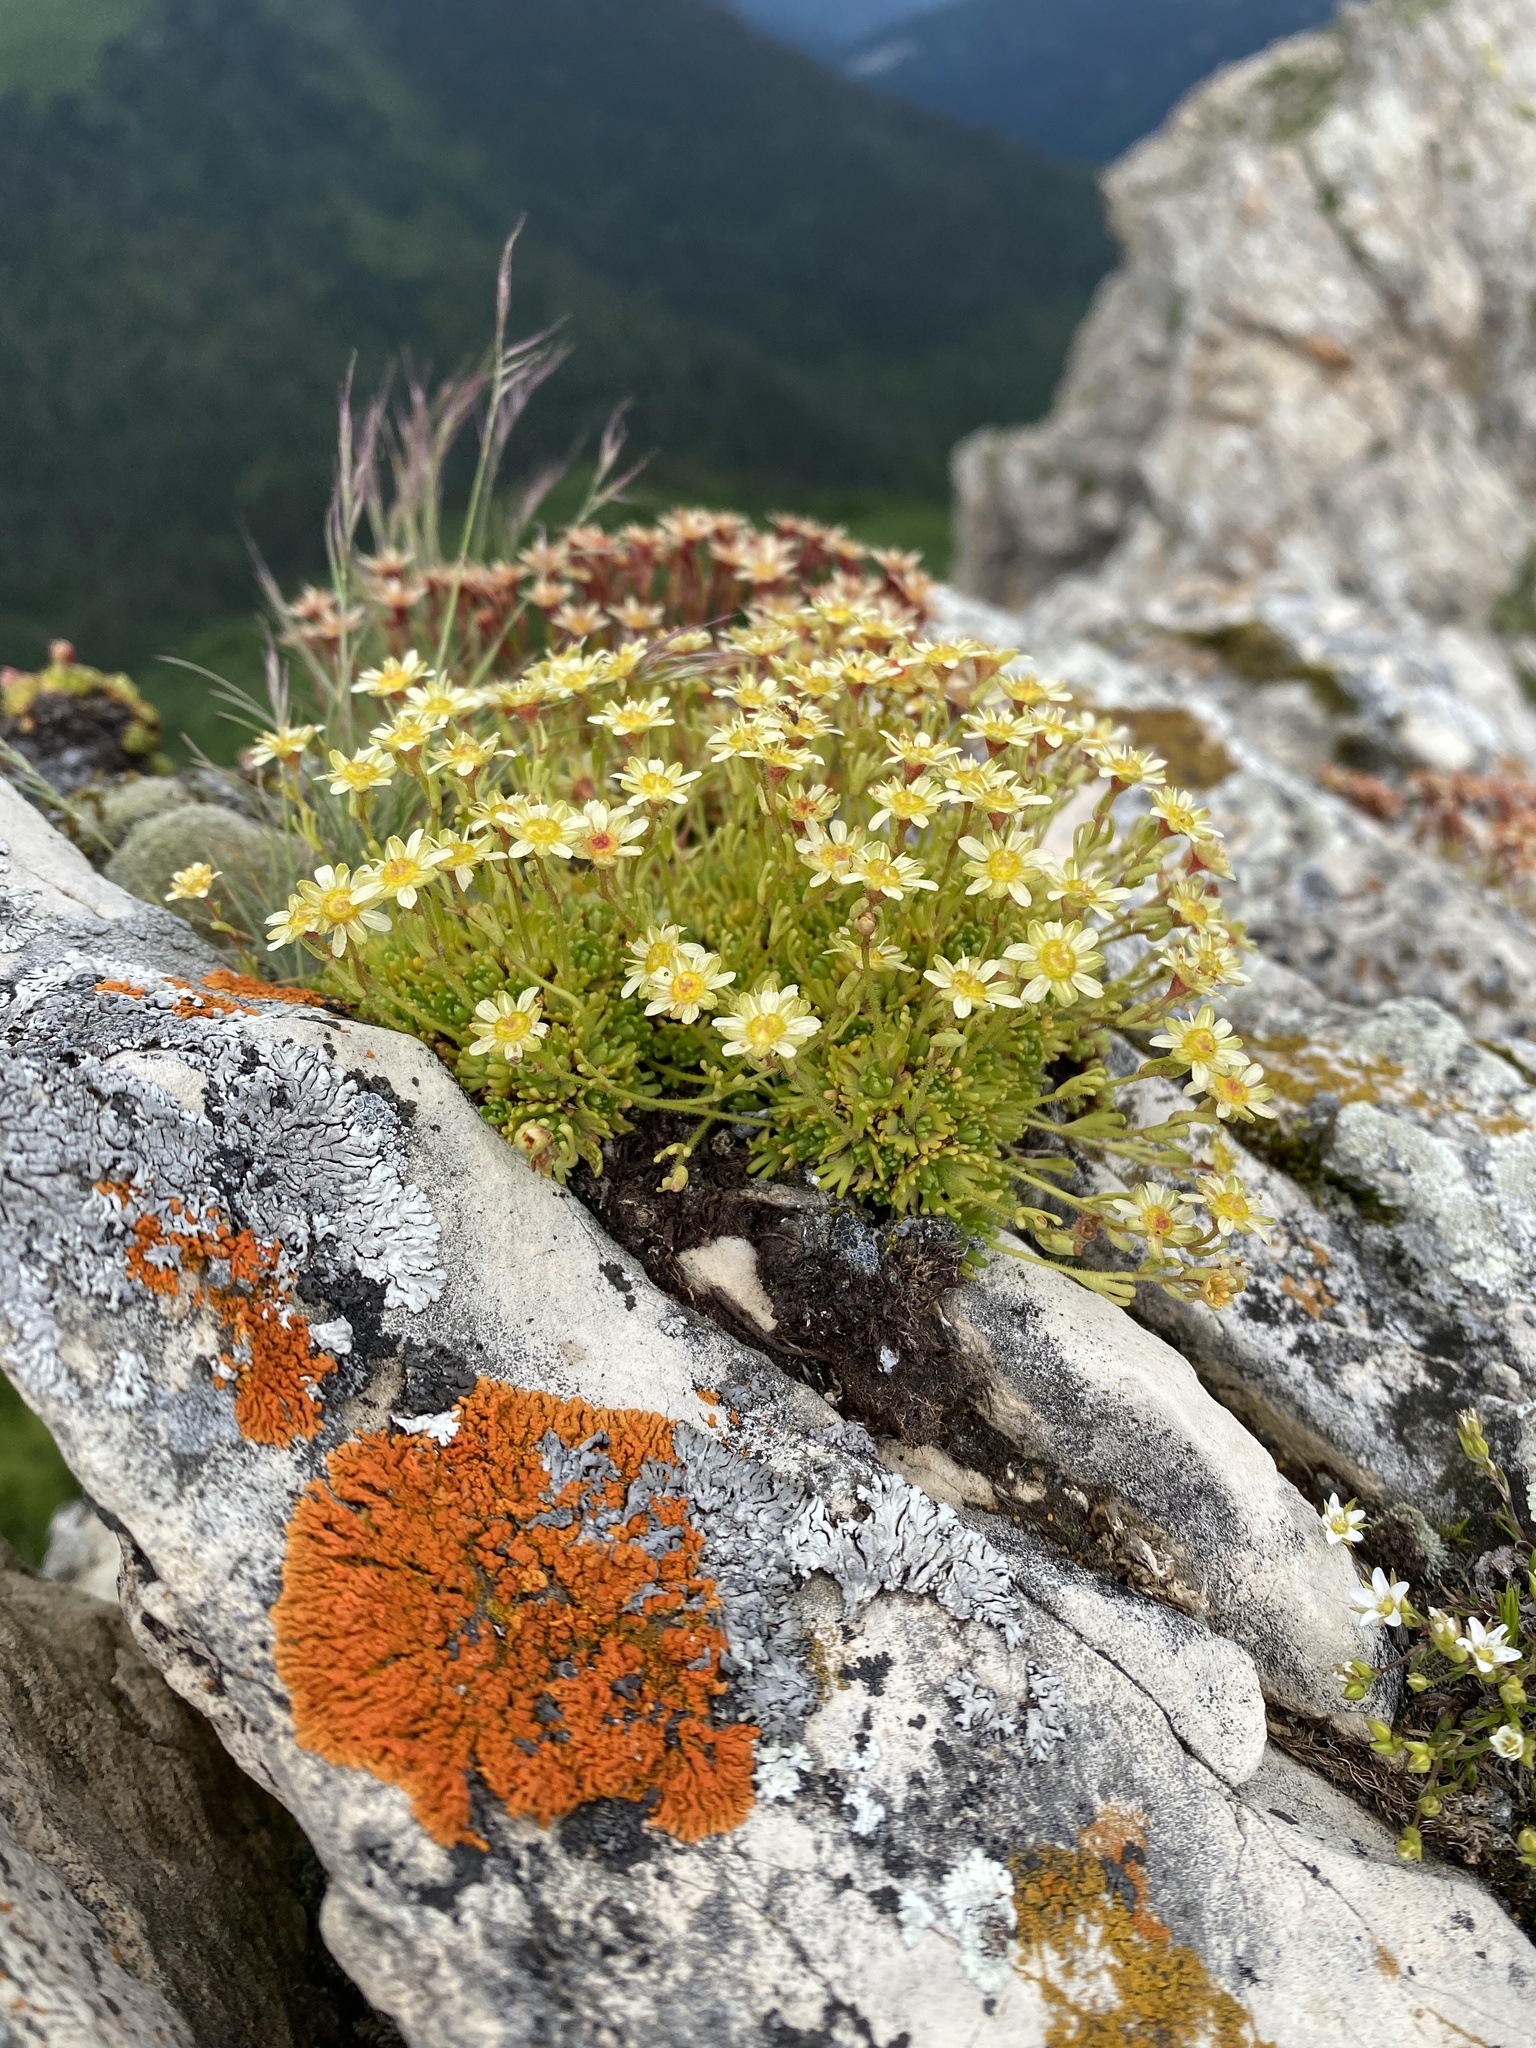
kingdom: Plantae
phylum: Tracheophyta
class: Magnoliopsida
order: Saxifragales
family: Saxifragaceae
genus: Saxifraga
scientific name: Saxifraga moschata
